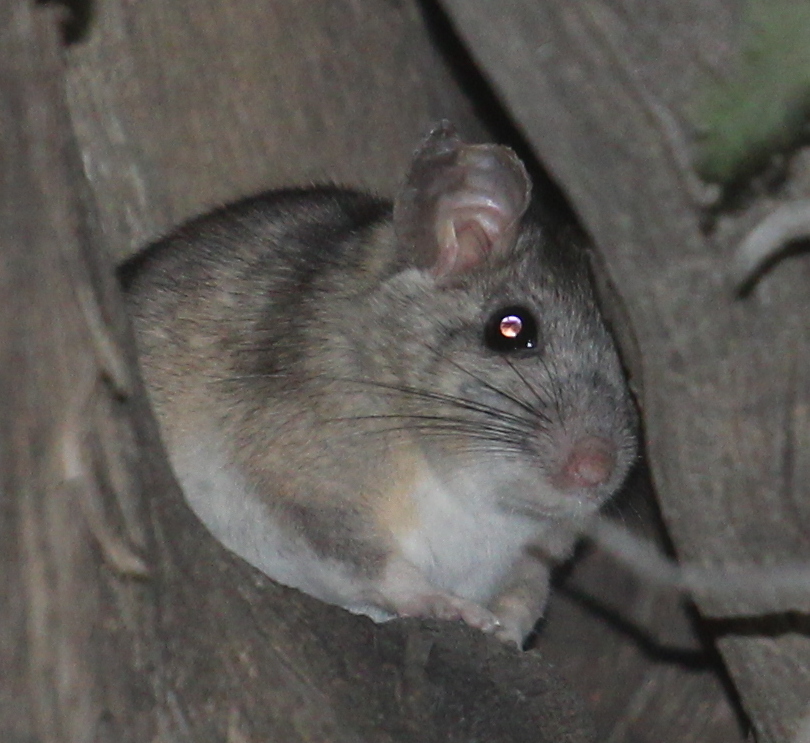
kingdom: Animalia
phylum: Chordata
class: Mammalia
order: Rodentia
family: Cricetidae
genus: Neotoma
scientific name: Neotoma albigula
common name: White-throated woodrat
